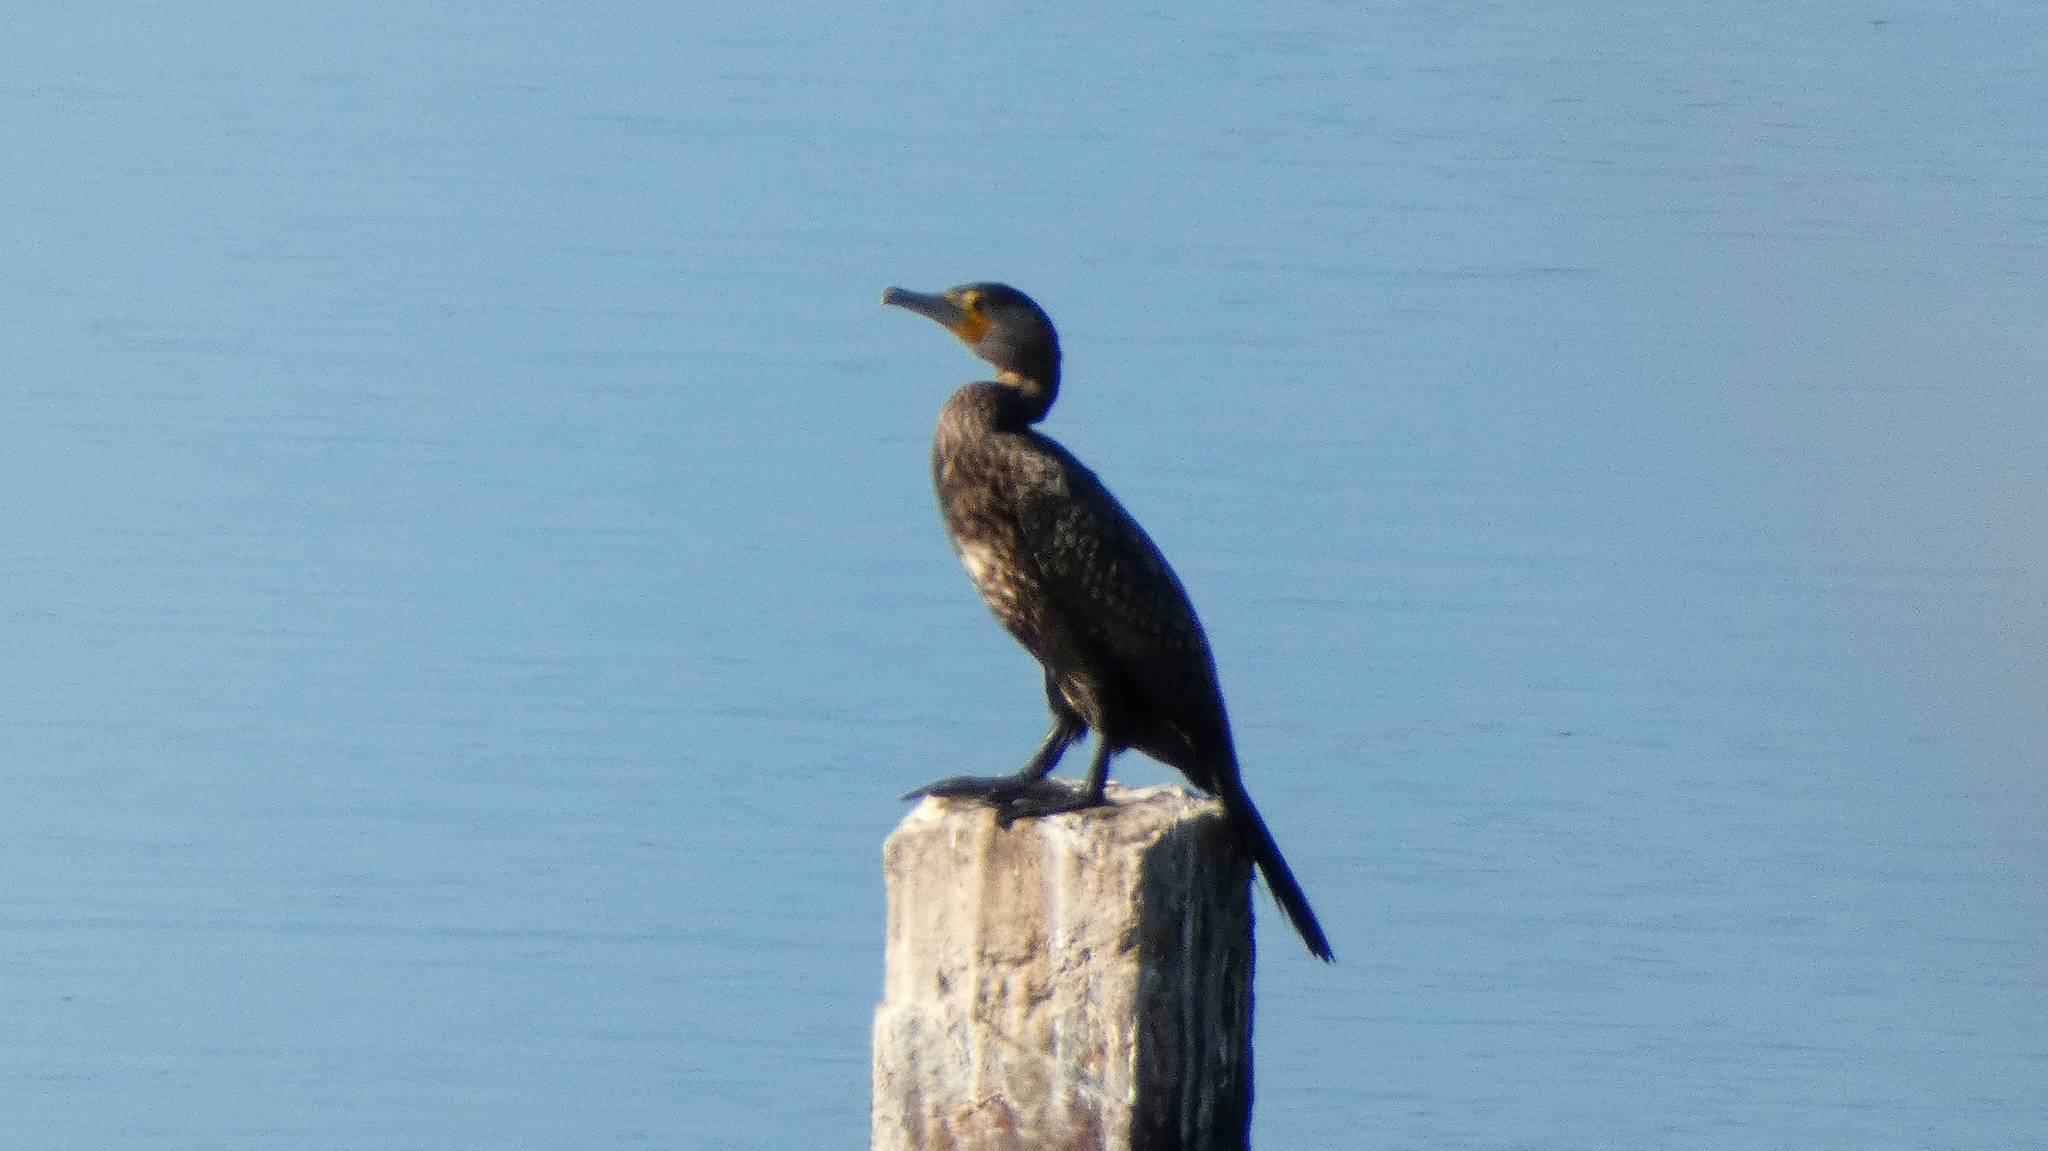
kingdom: Animalia
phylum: Chordata
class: Aves
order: Suliformes
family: Phalacrocoracidae
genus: Phalacrocorax
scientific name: Phalacrocorax carbo
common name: Great cormorant
